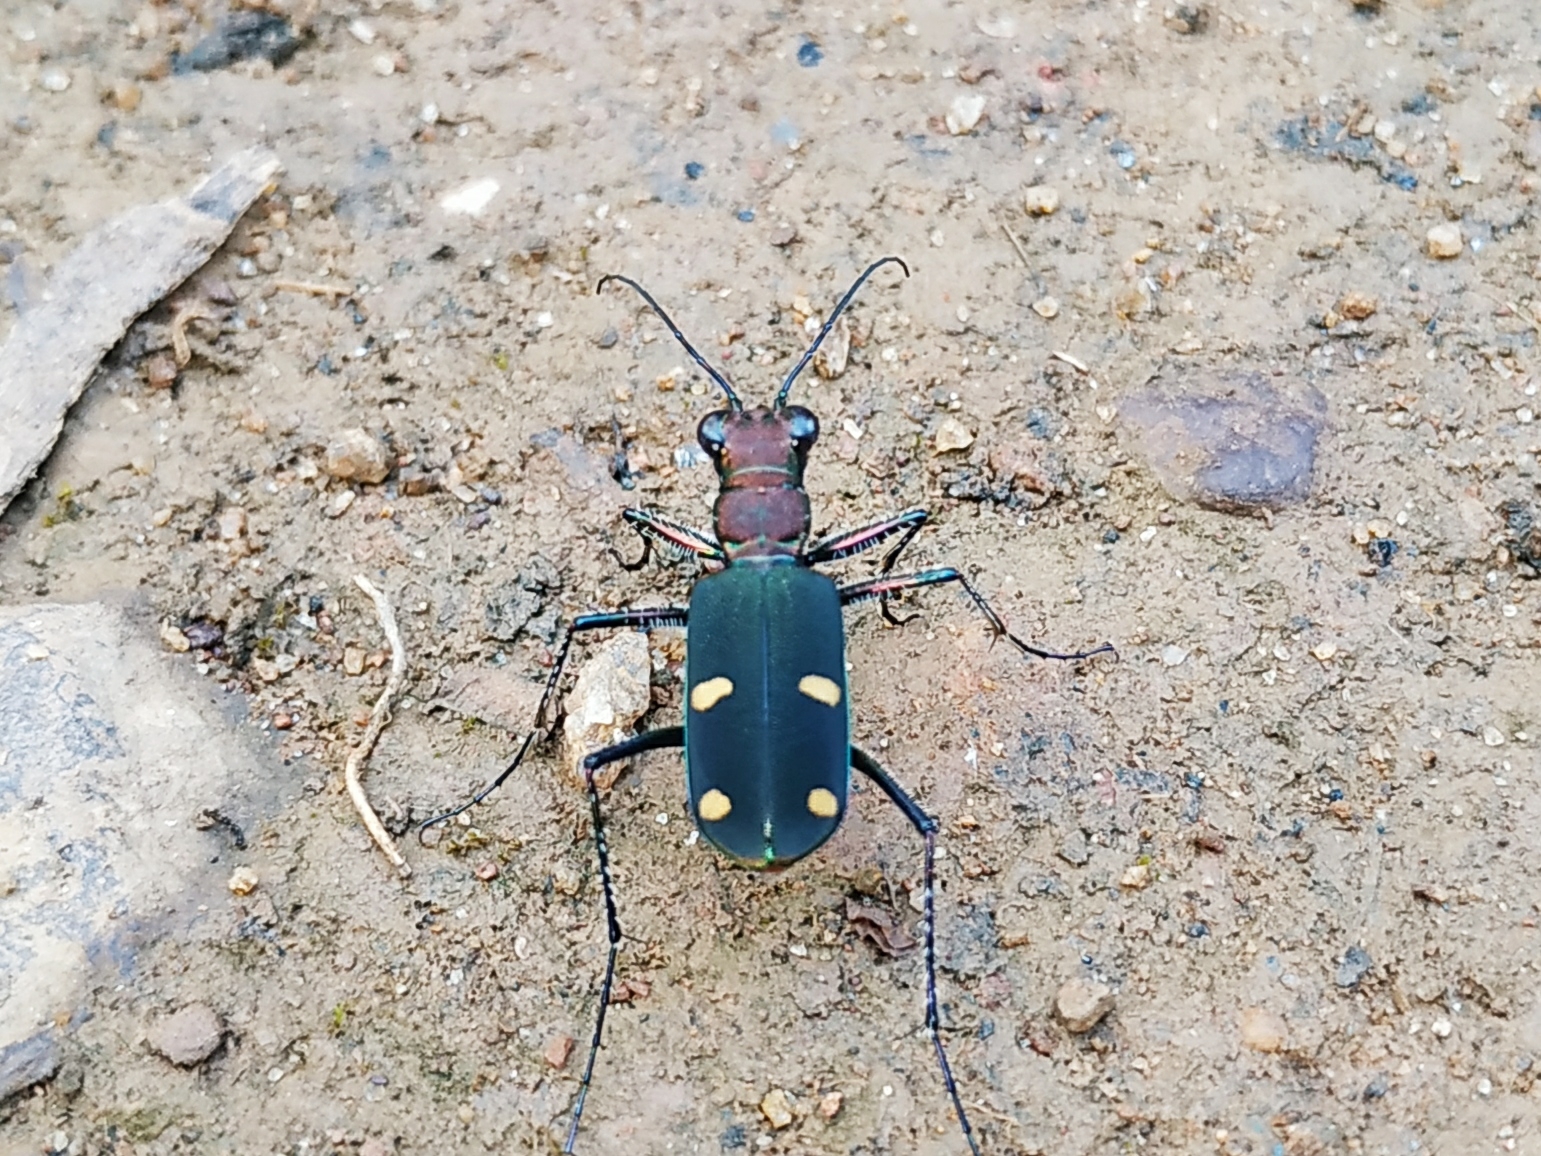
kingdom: Animalia
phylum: Arthropoda
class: Insecta
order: Coleoptera
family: Carabidae
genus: Cicindela
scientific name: Cicindela bicolor
